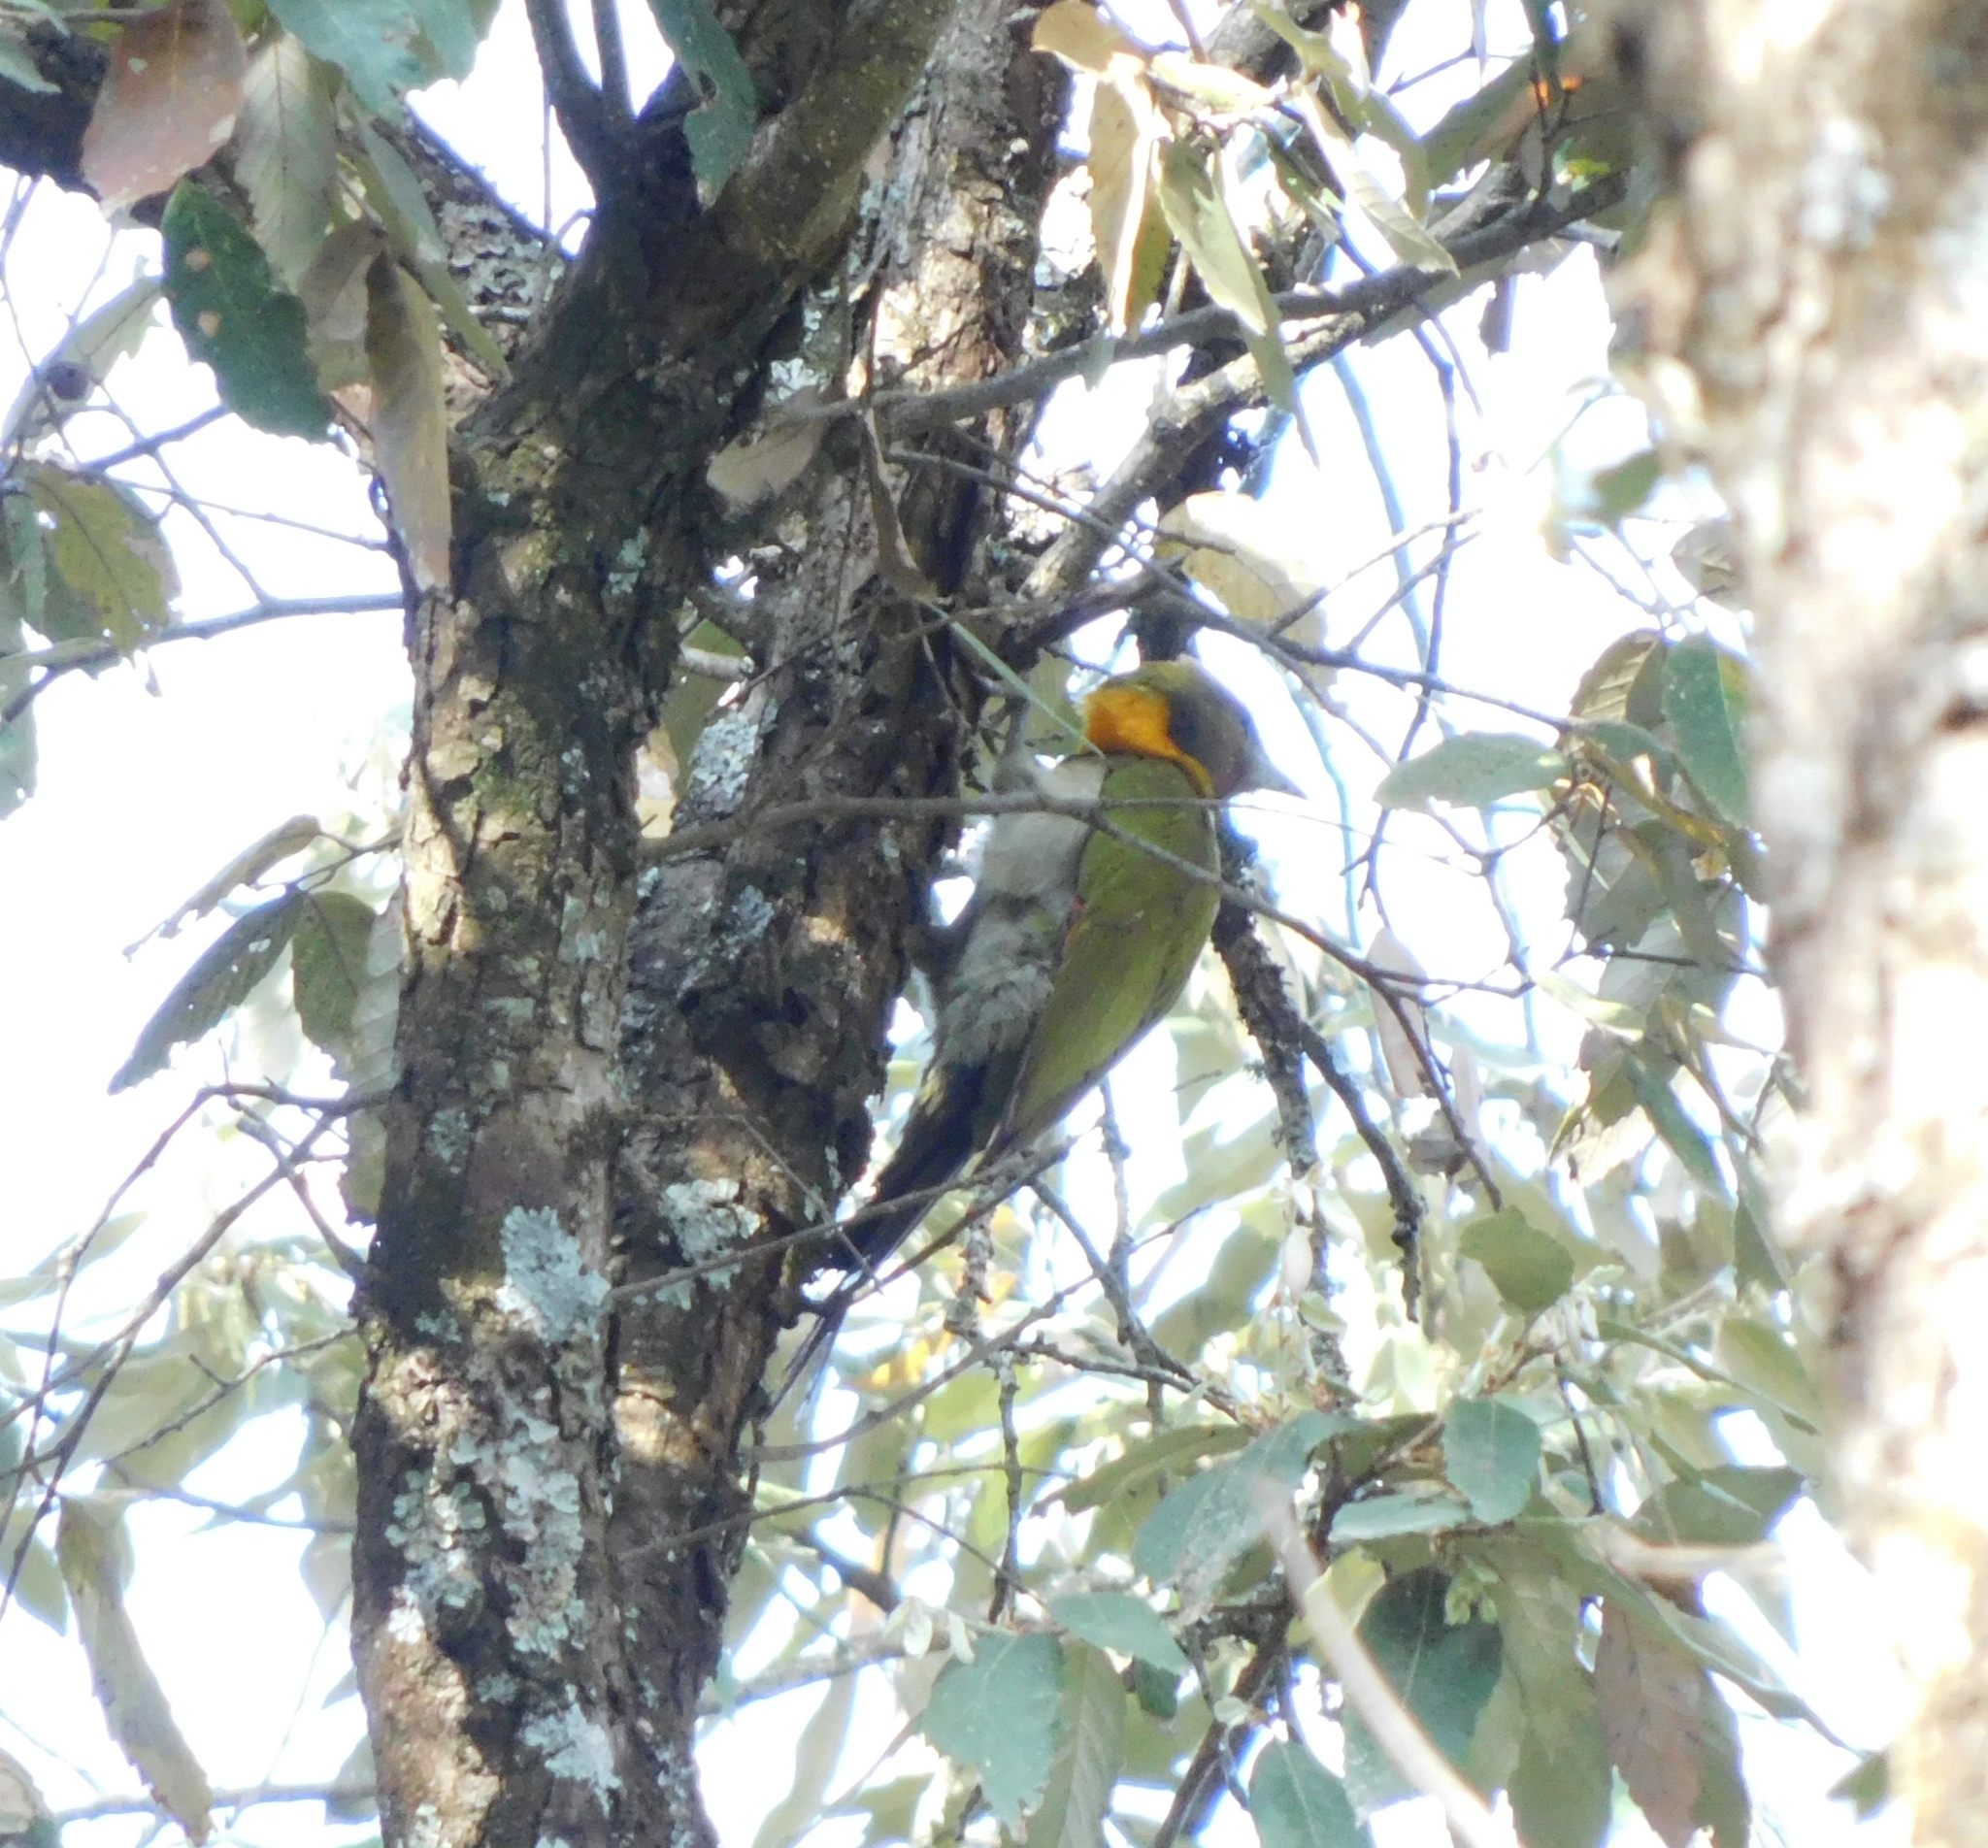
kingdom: Animalia
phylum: Chordata
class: Aves
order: Piciformes
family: Picidae
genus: Chrysophlegma
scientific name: Chrysophlegma flavinucha
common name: Greater yellownape
